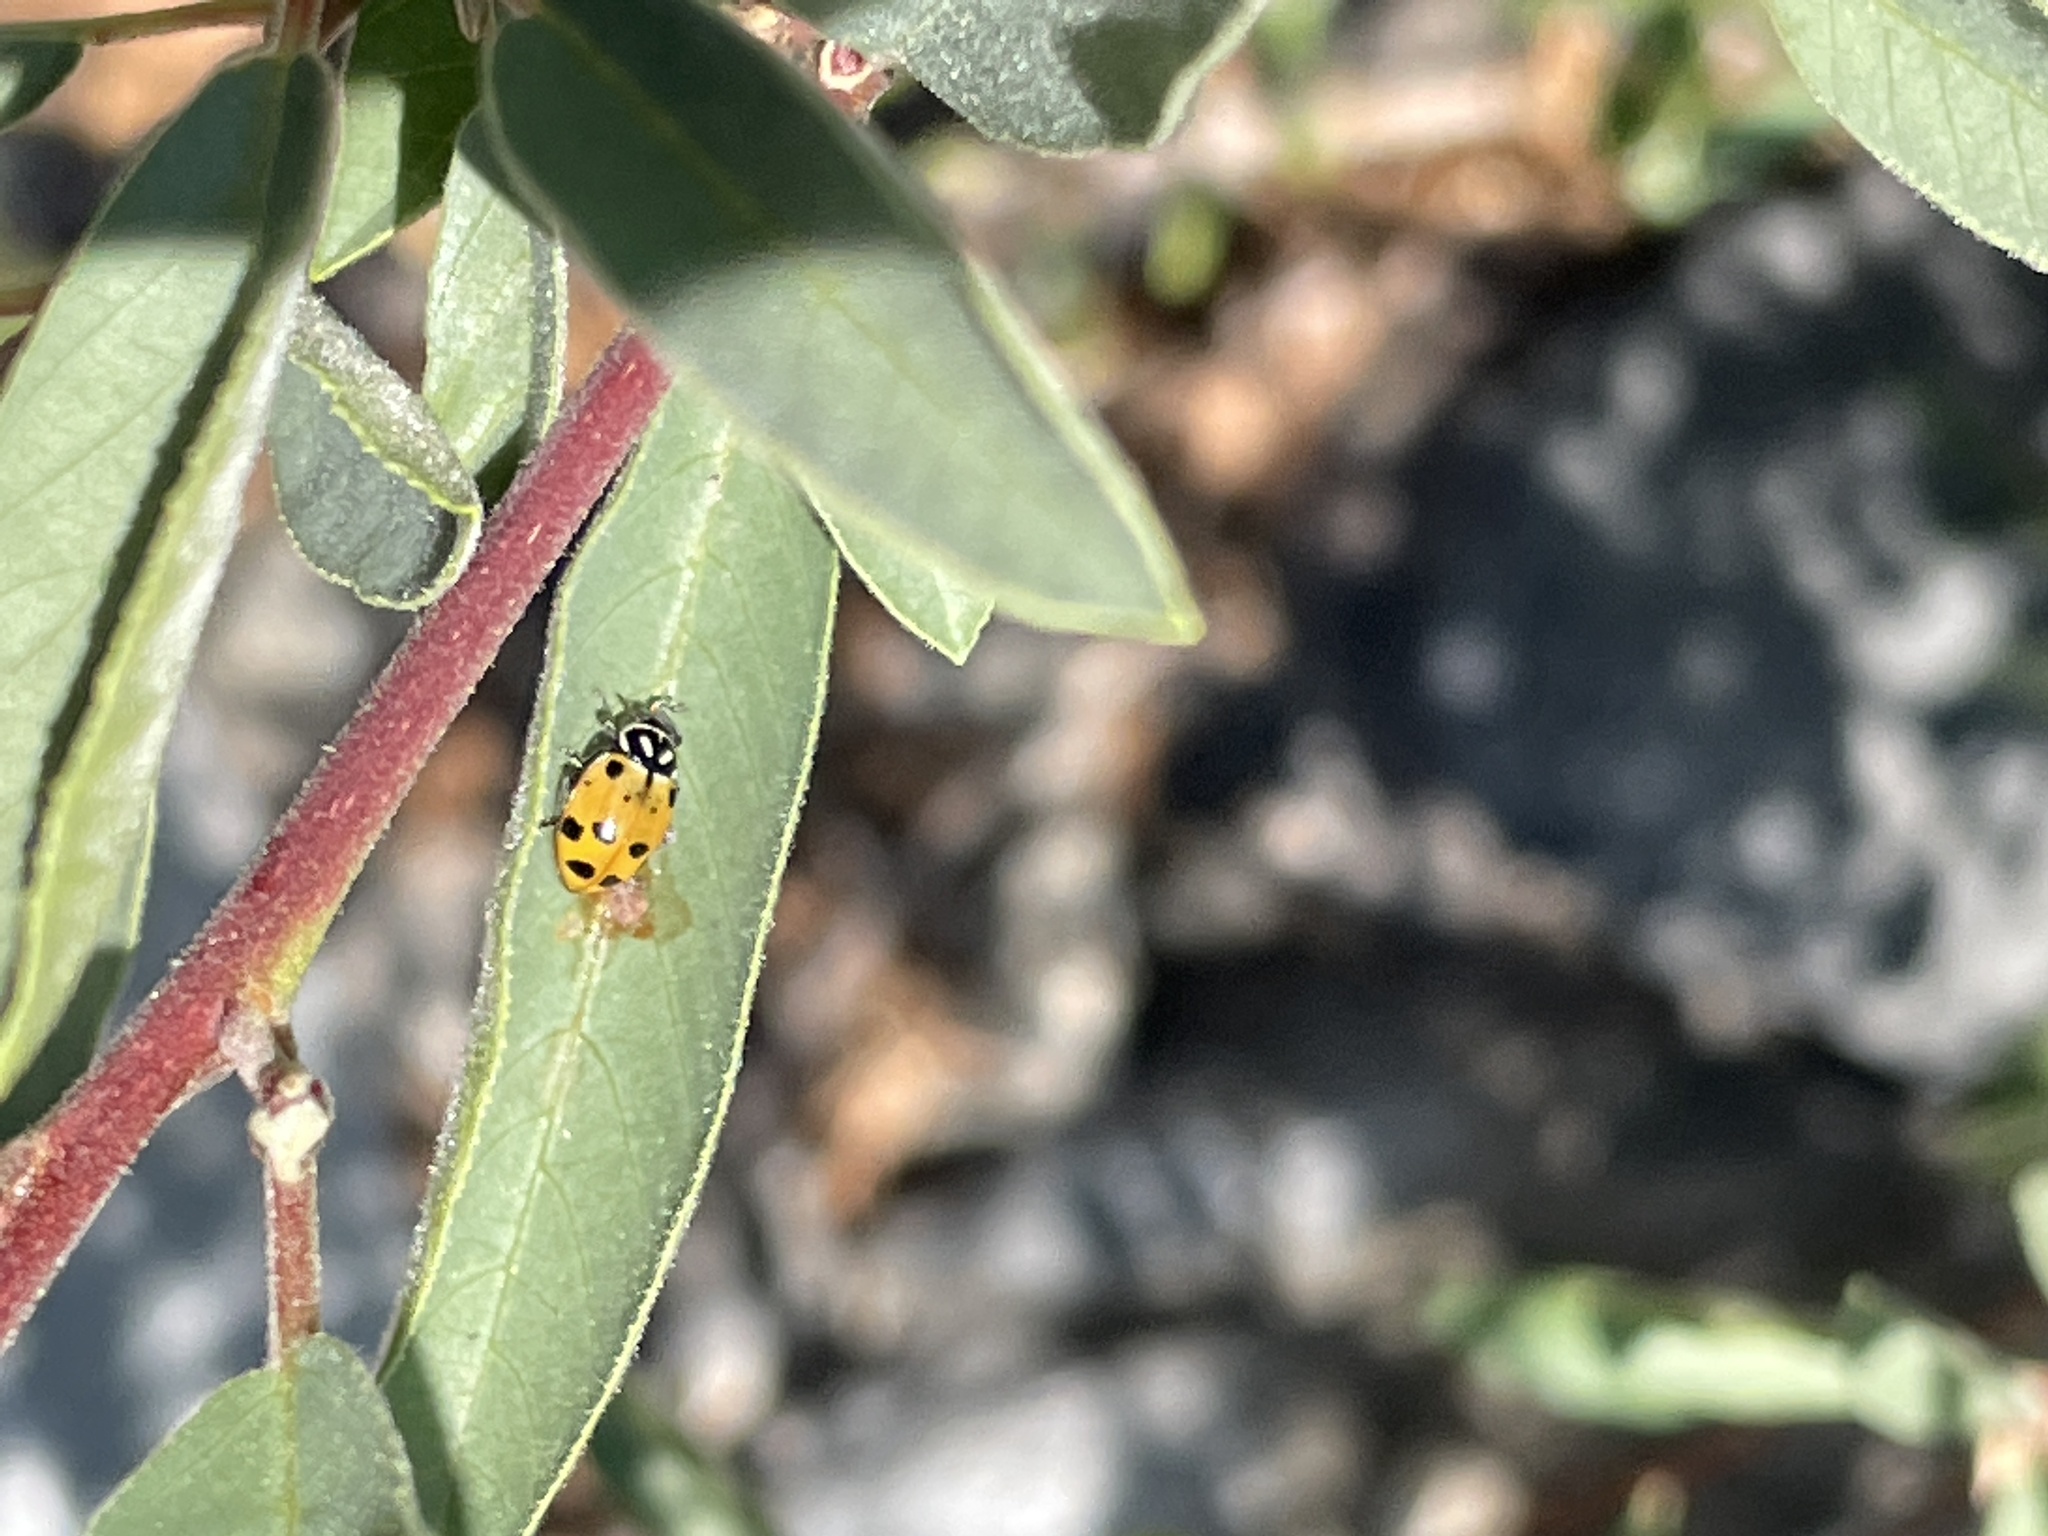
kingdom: Animalia
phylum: Arthropoda
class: Insecta
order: Coleoptera
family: Coccinellidae
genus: Hippodamia
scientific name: Hippodamia convergens
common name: Convergent lady beetle
